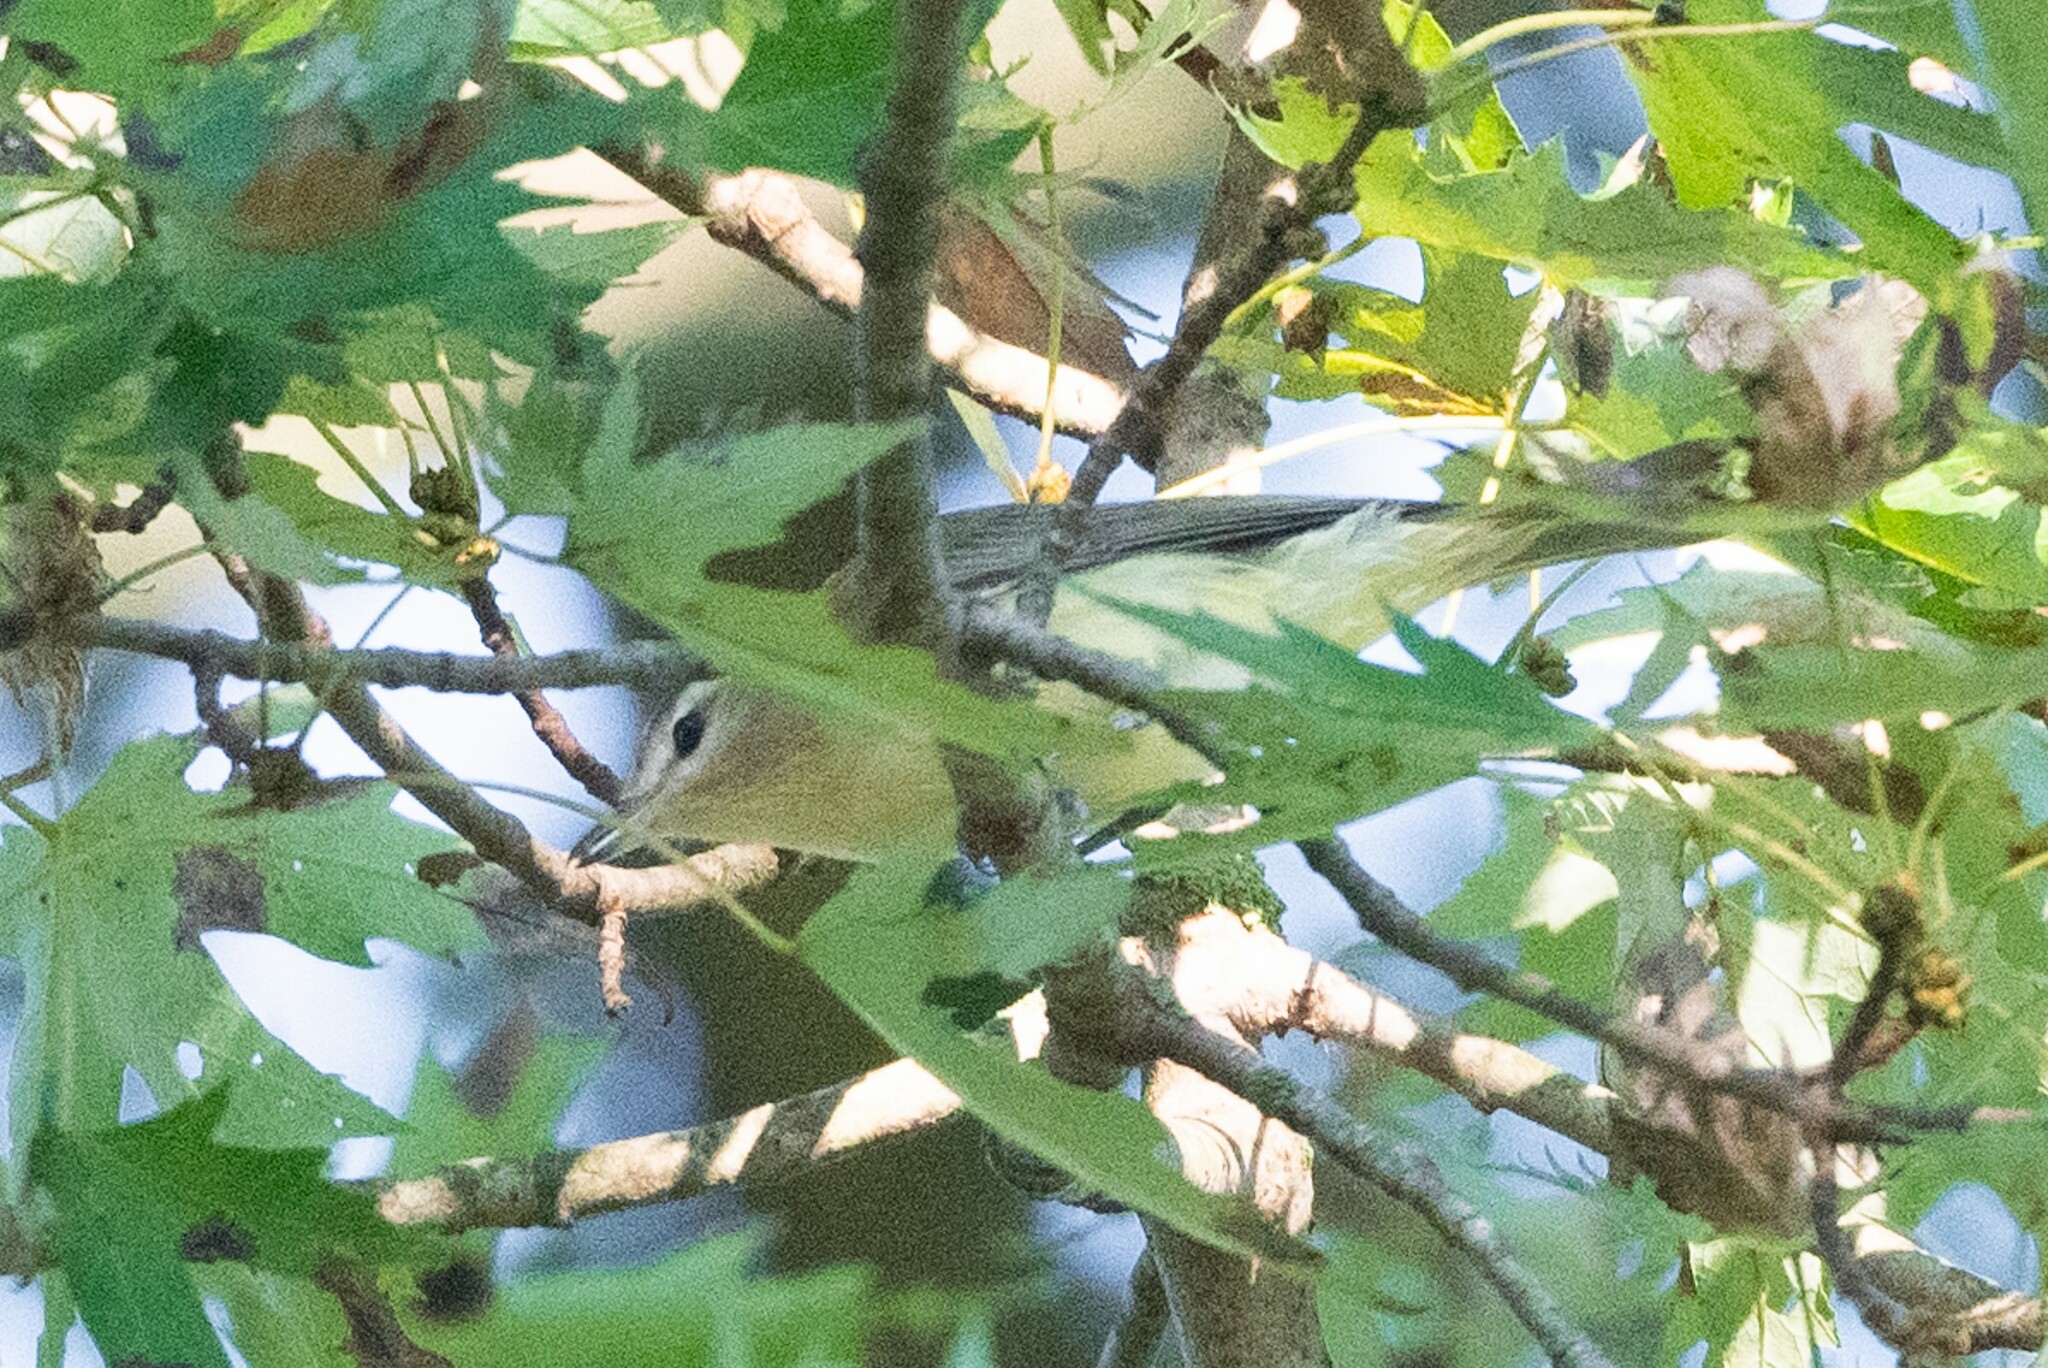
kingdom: Animalia
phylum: Chordata
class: Aves
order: Passeriformes
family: Vireonidae
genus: Vireo
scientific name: Vireo philadelphicus
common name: Philadelphia vireo
